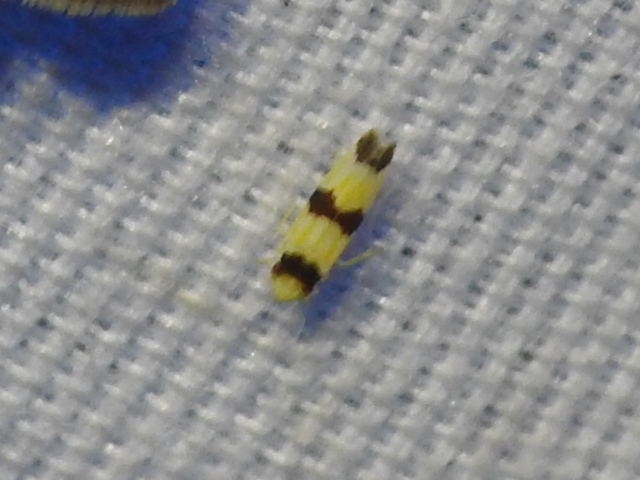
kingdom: Animalia
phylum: Arthropoda
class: Insecta
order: Hemiptera
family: Cicadellidae
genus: Erythroneura
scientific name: Erythroneura calycula
